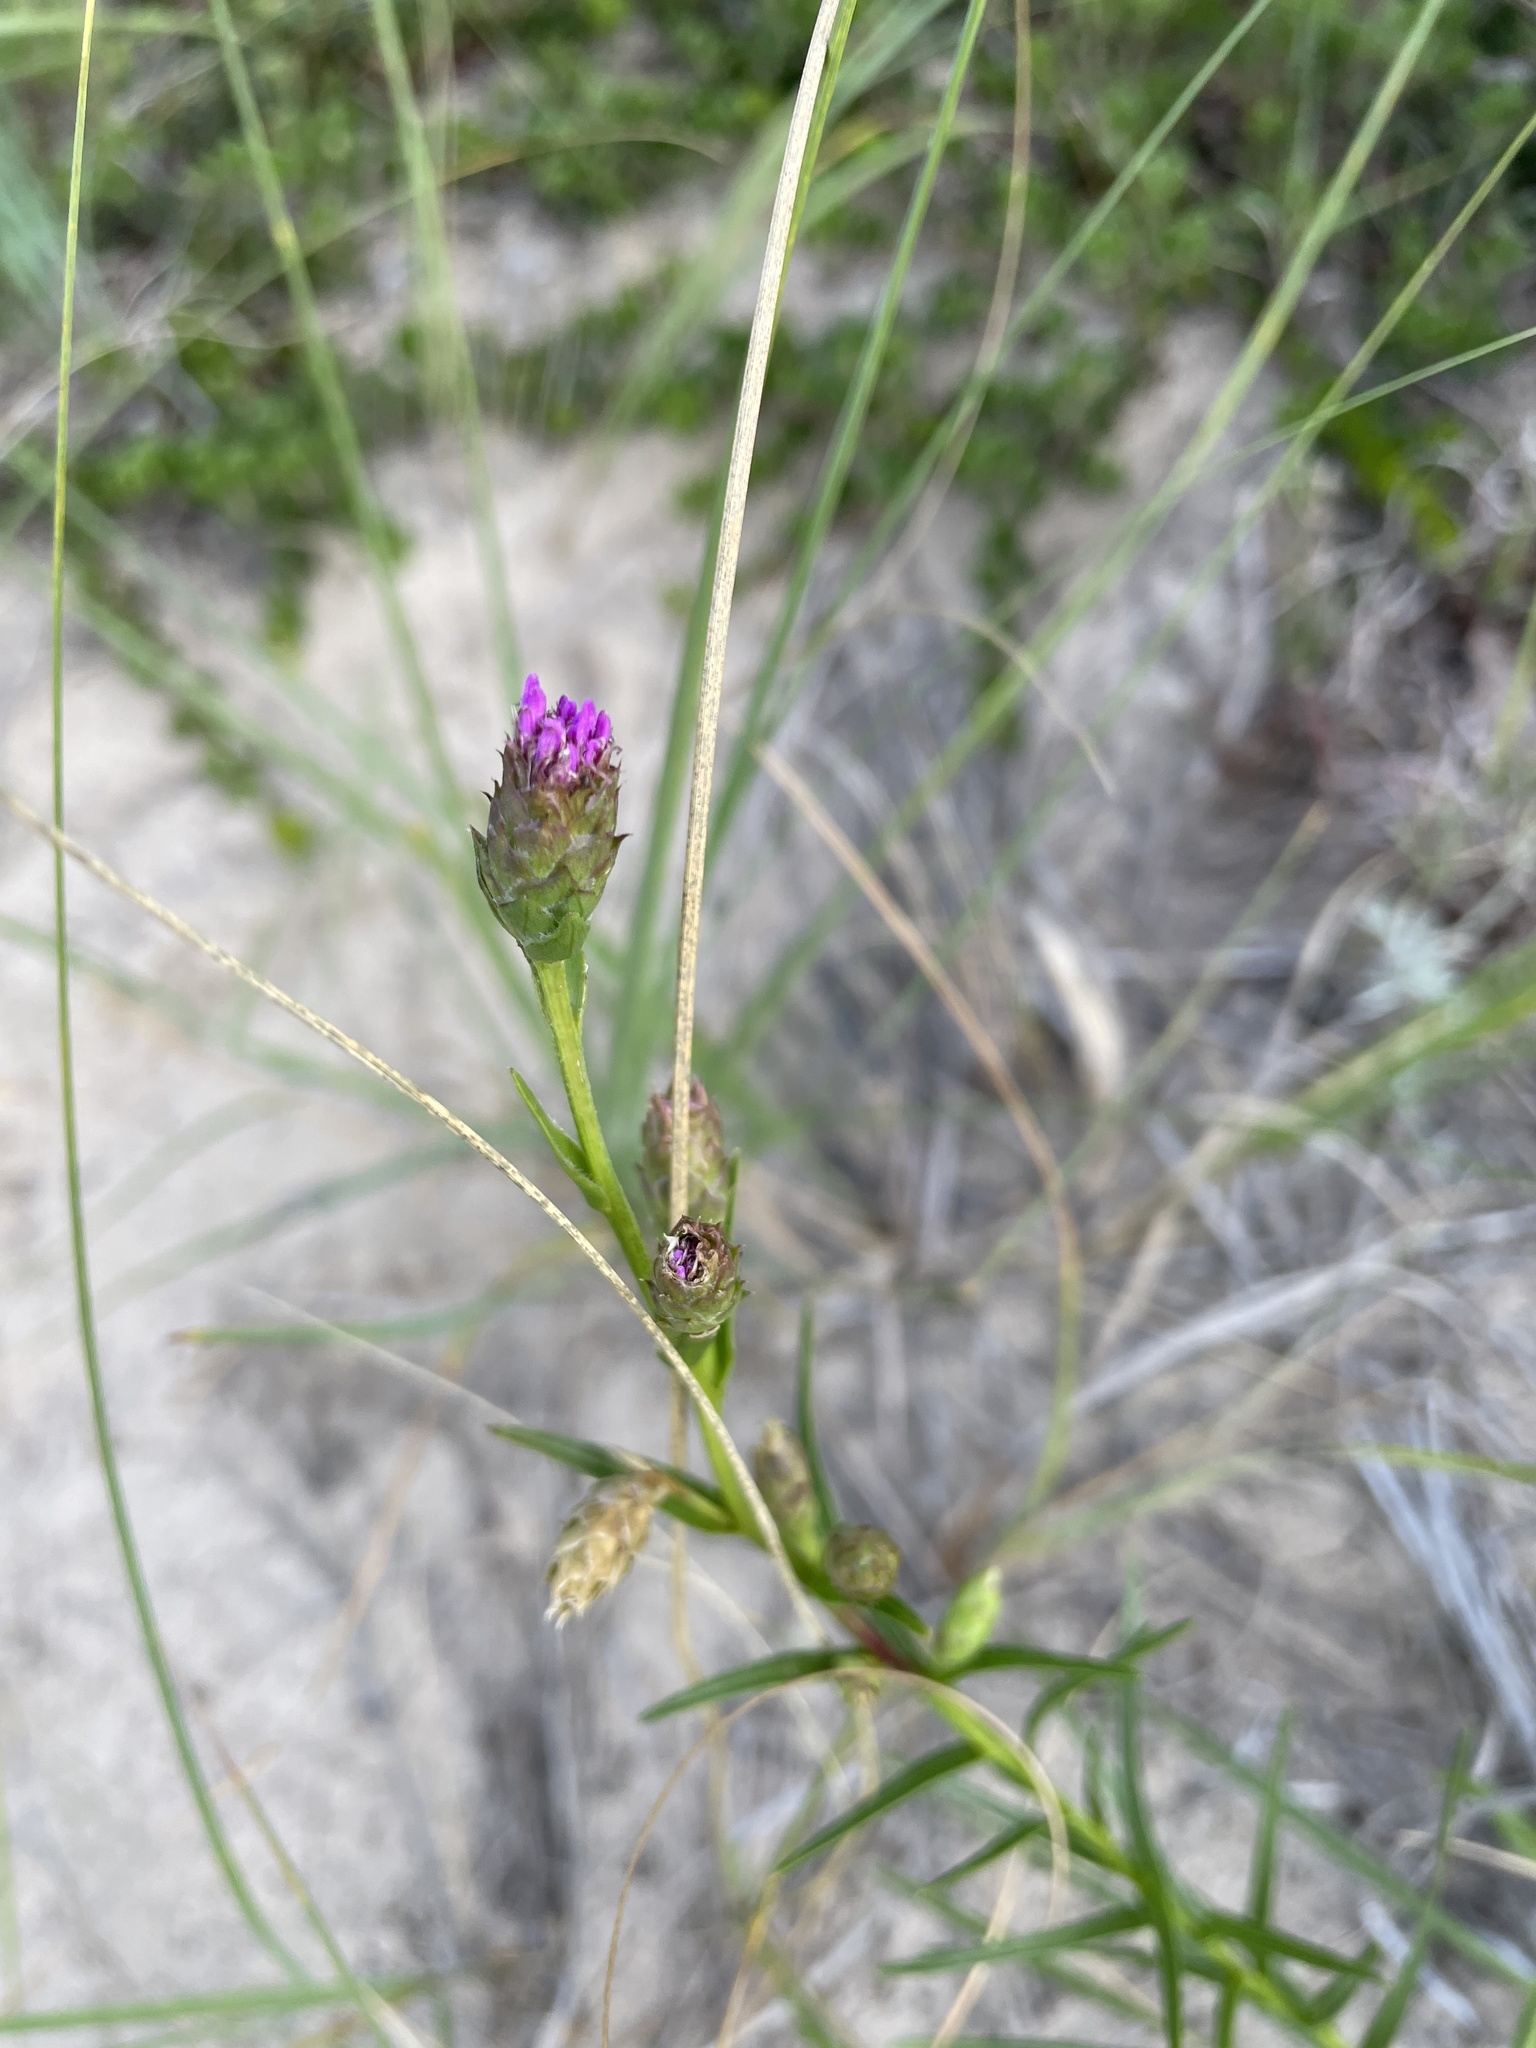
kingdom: Plantae
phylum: Tracheophyta
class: Magnoliopsida
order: Asterales
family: Asteraceae
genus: Liatris
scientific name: Liatris cylindracea
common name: Few-head blazingstar
